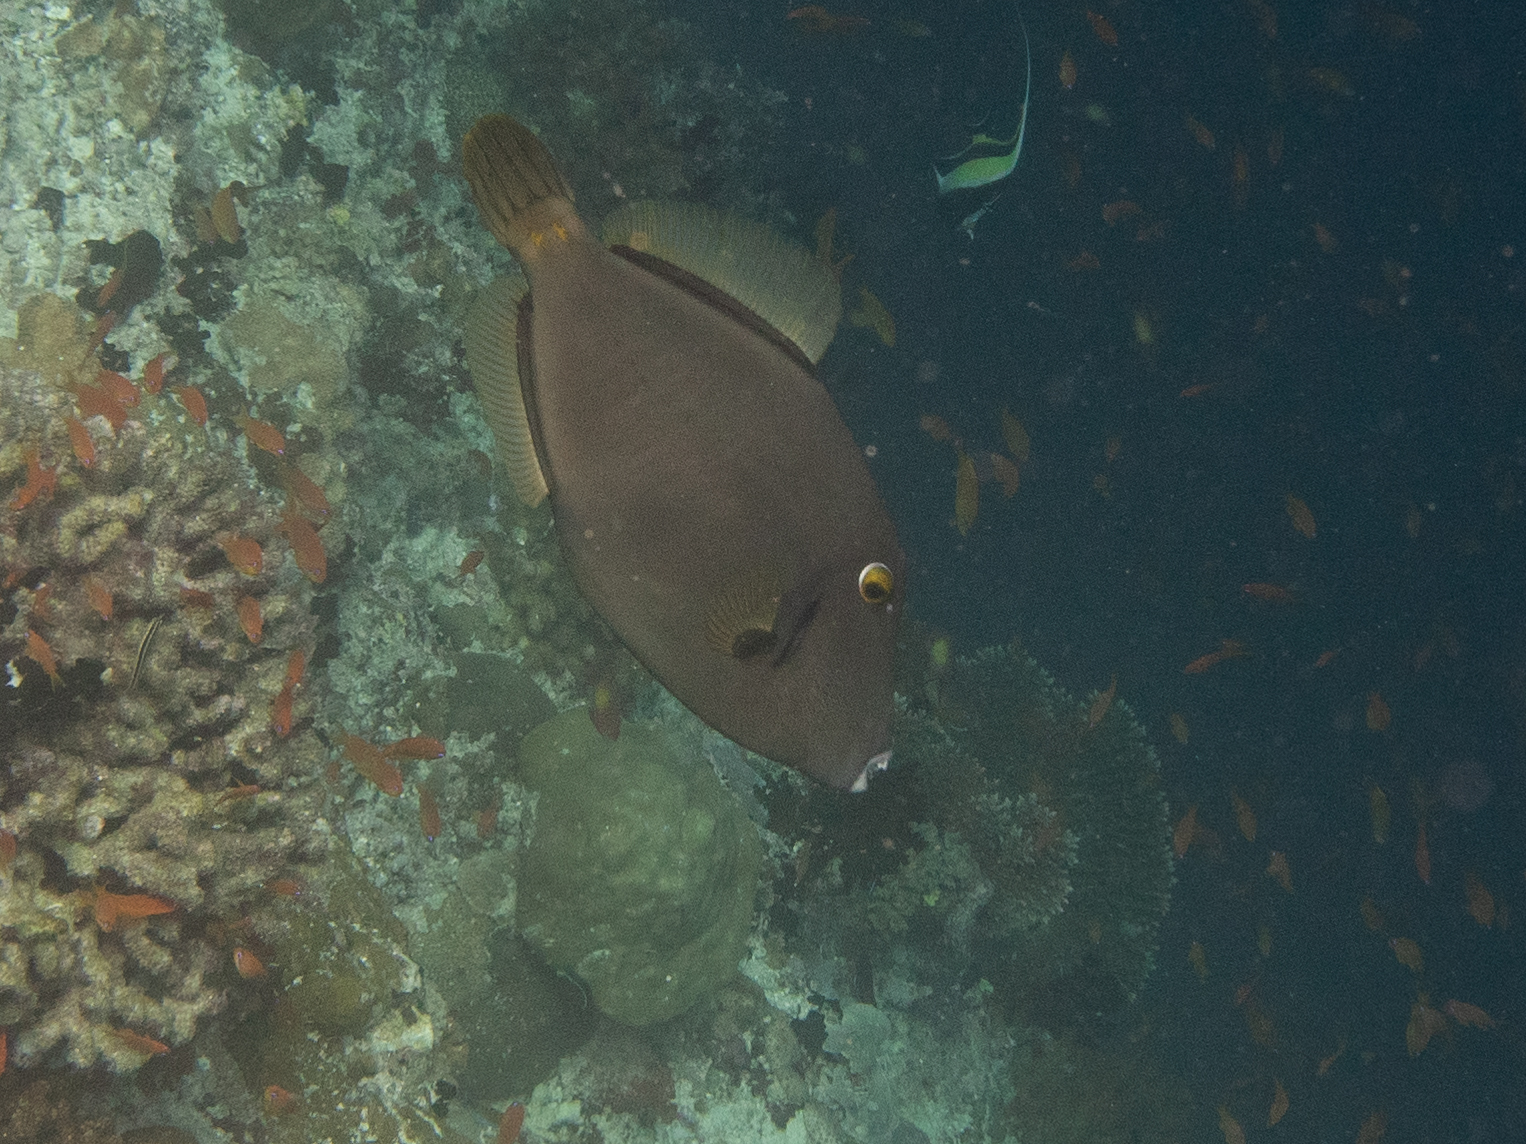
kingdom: Animalia
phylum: Chordata
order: Tetraodontiformes
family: Monacanthidae
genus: Cantherhines
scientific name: Cantherhines dumerilii
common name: Barred filefish
